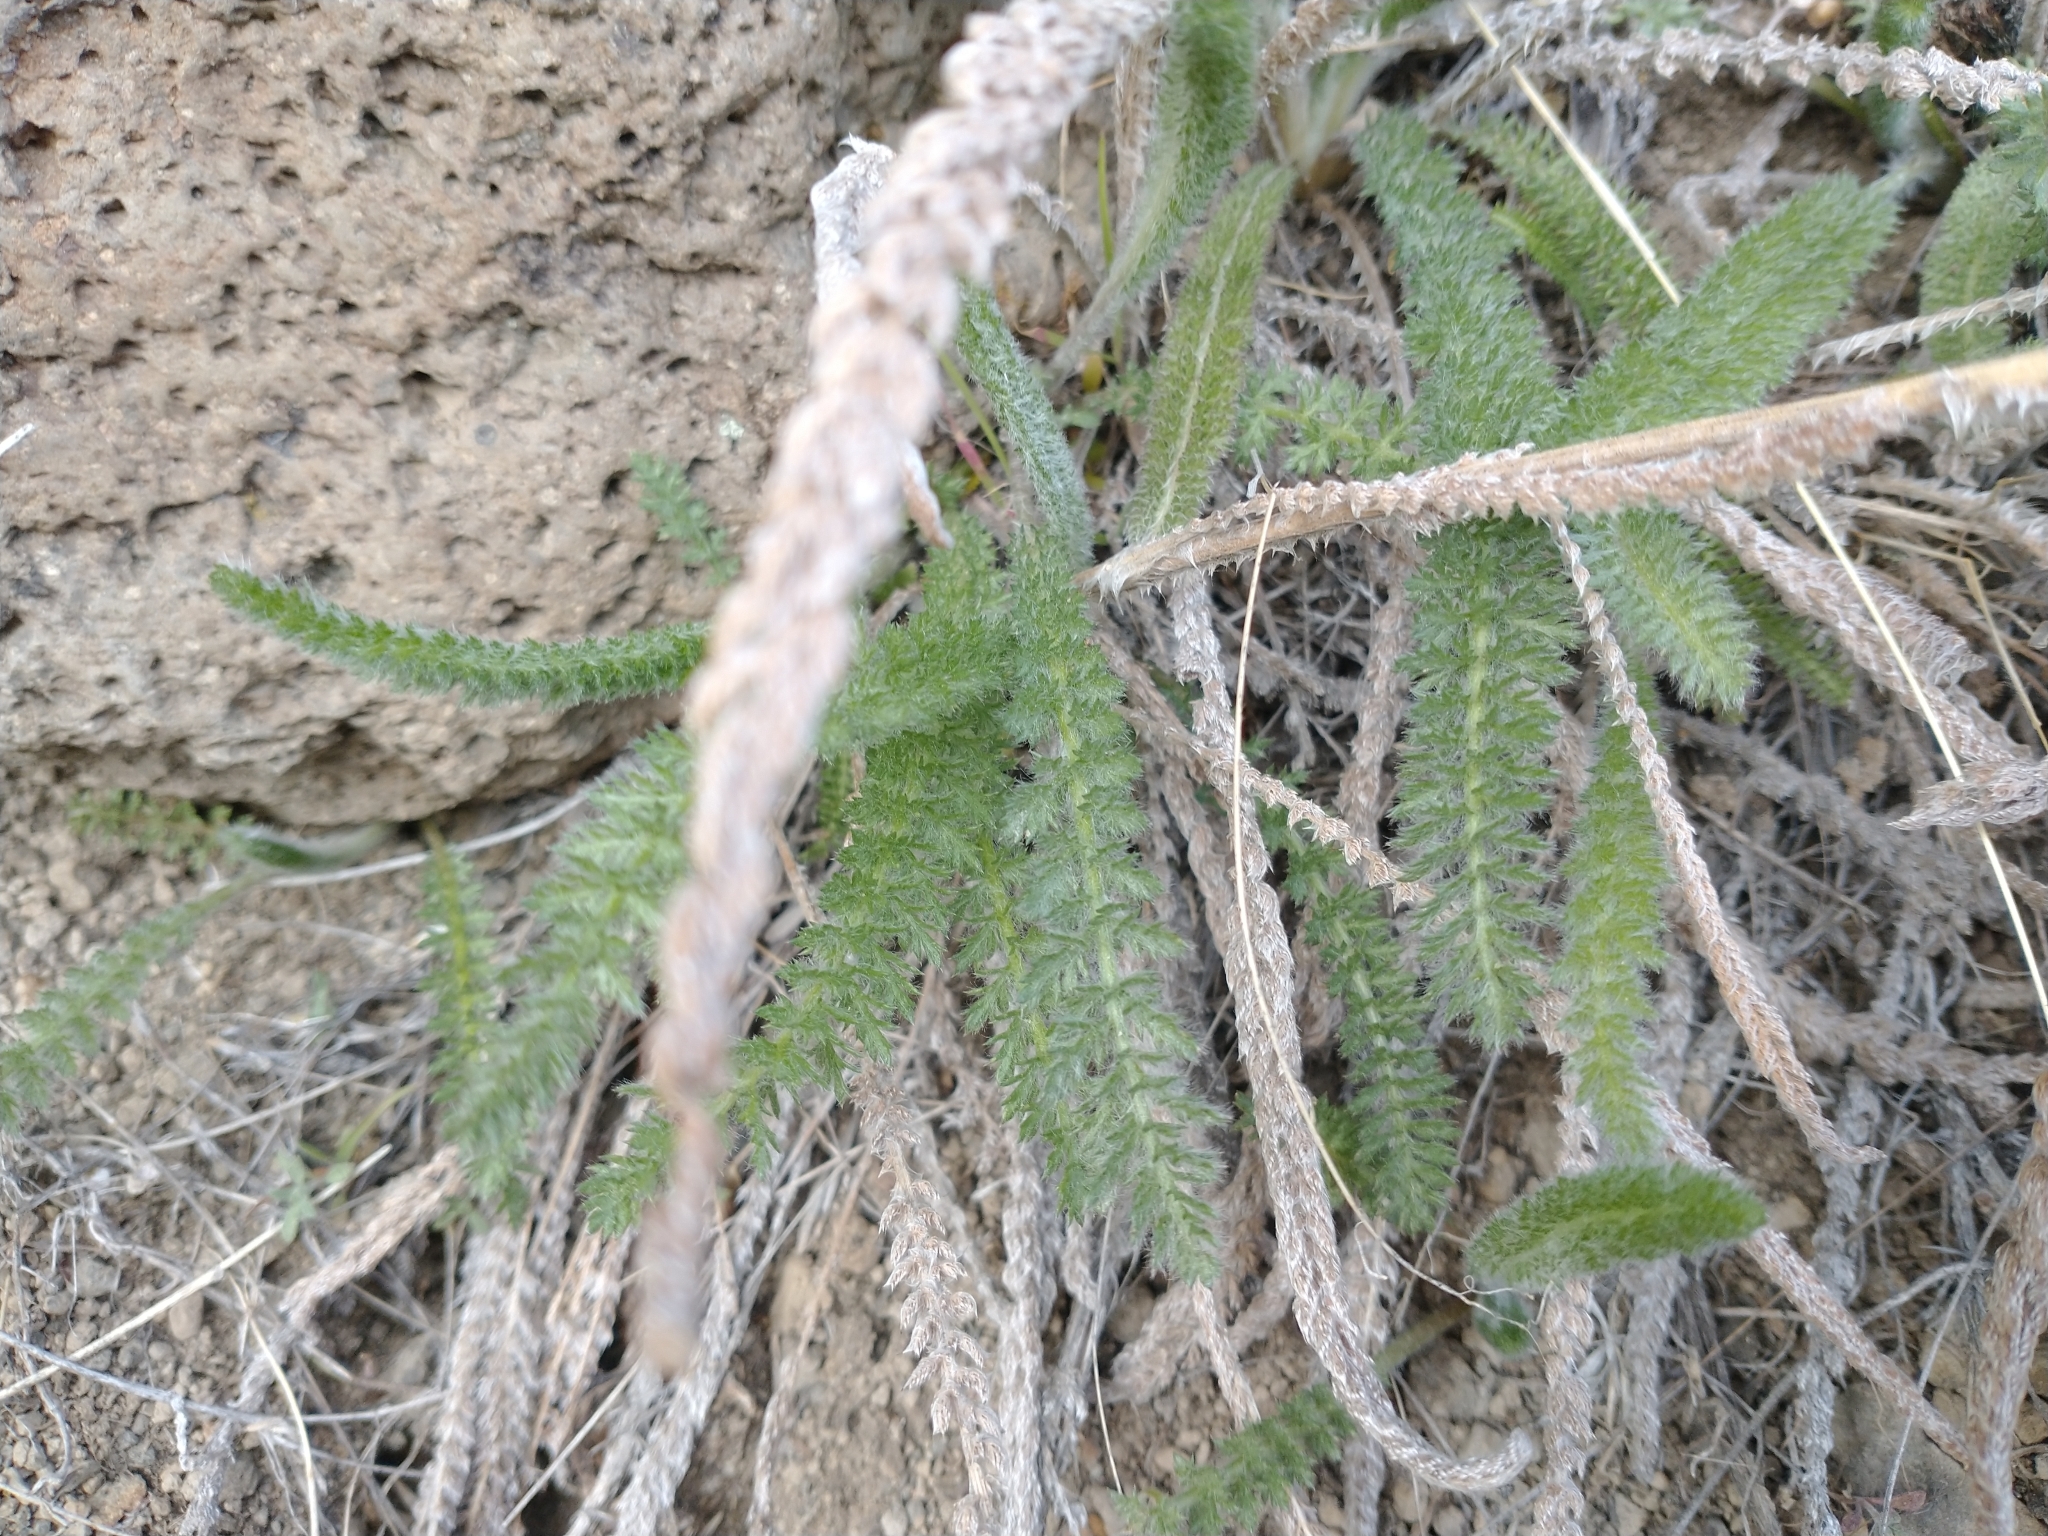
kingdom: Plantae
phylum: Tracheophyta
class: Magnoliopsida
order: Asterales
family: Asteraceae
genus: Achillea
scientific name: Achillea millefolium
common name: Yarrow
